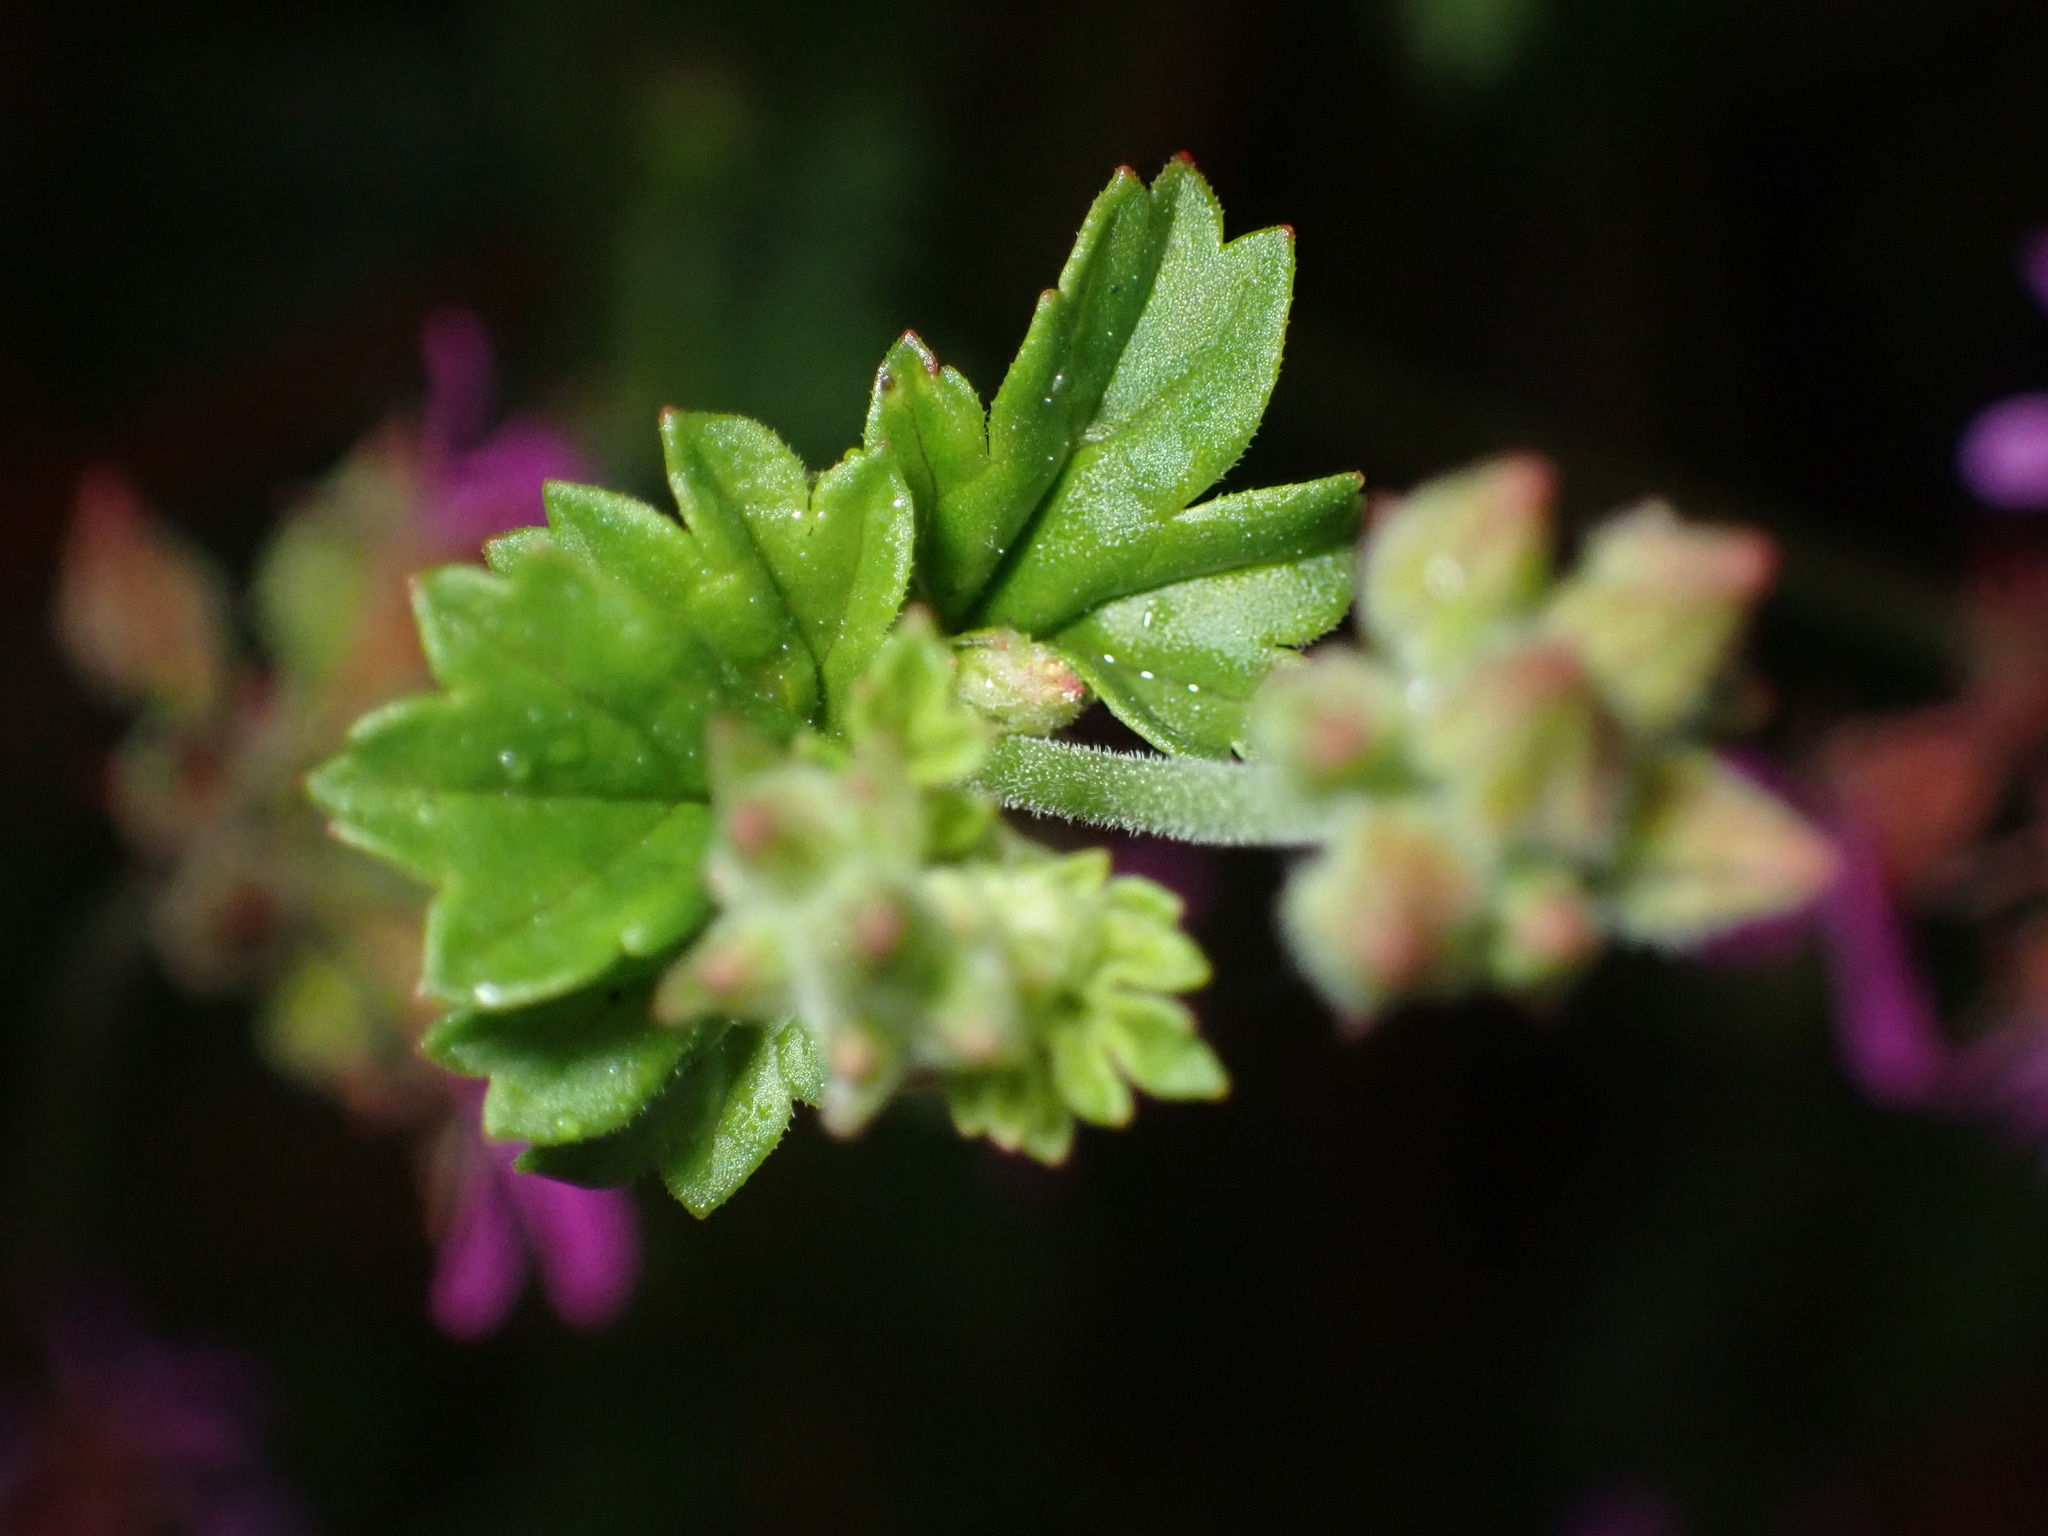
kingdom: Plantae
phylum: Tracheophyta
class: Magnoliopsida
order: Geraniales
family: Geraniaceae
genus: Pelargonium
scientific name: Pelargonium grossularioides
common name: Gooseberry geranium
